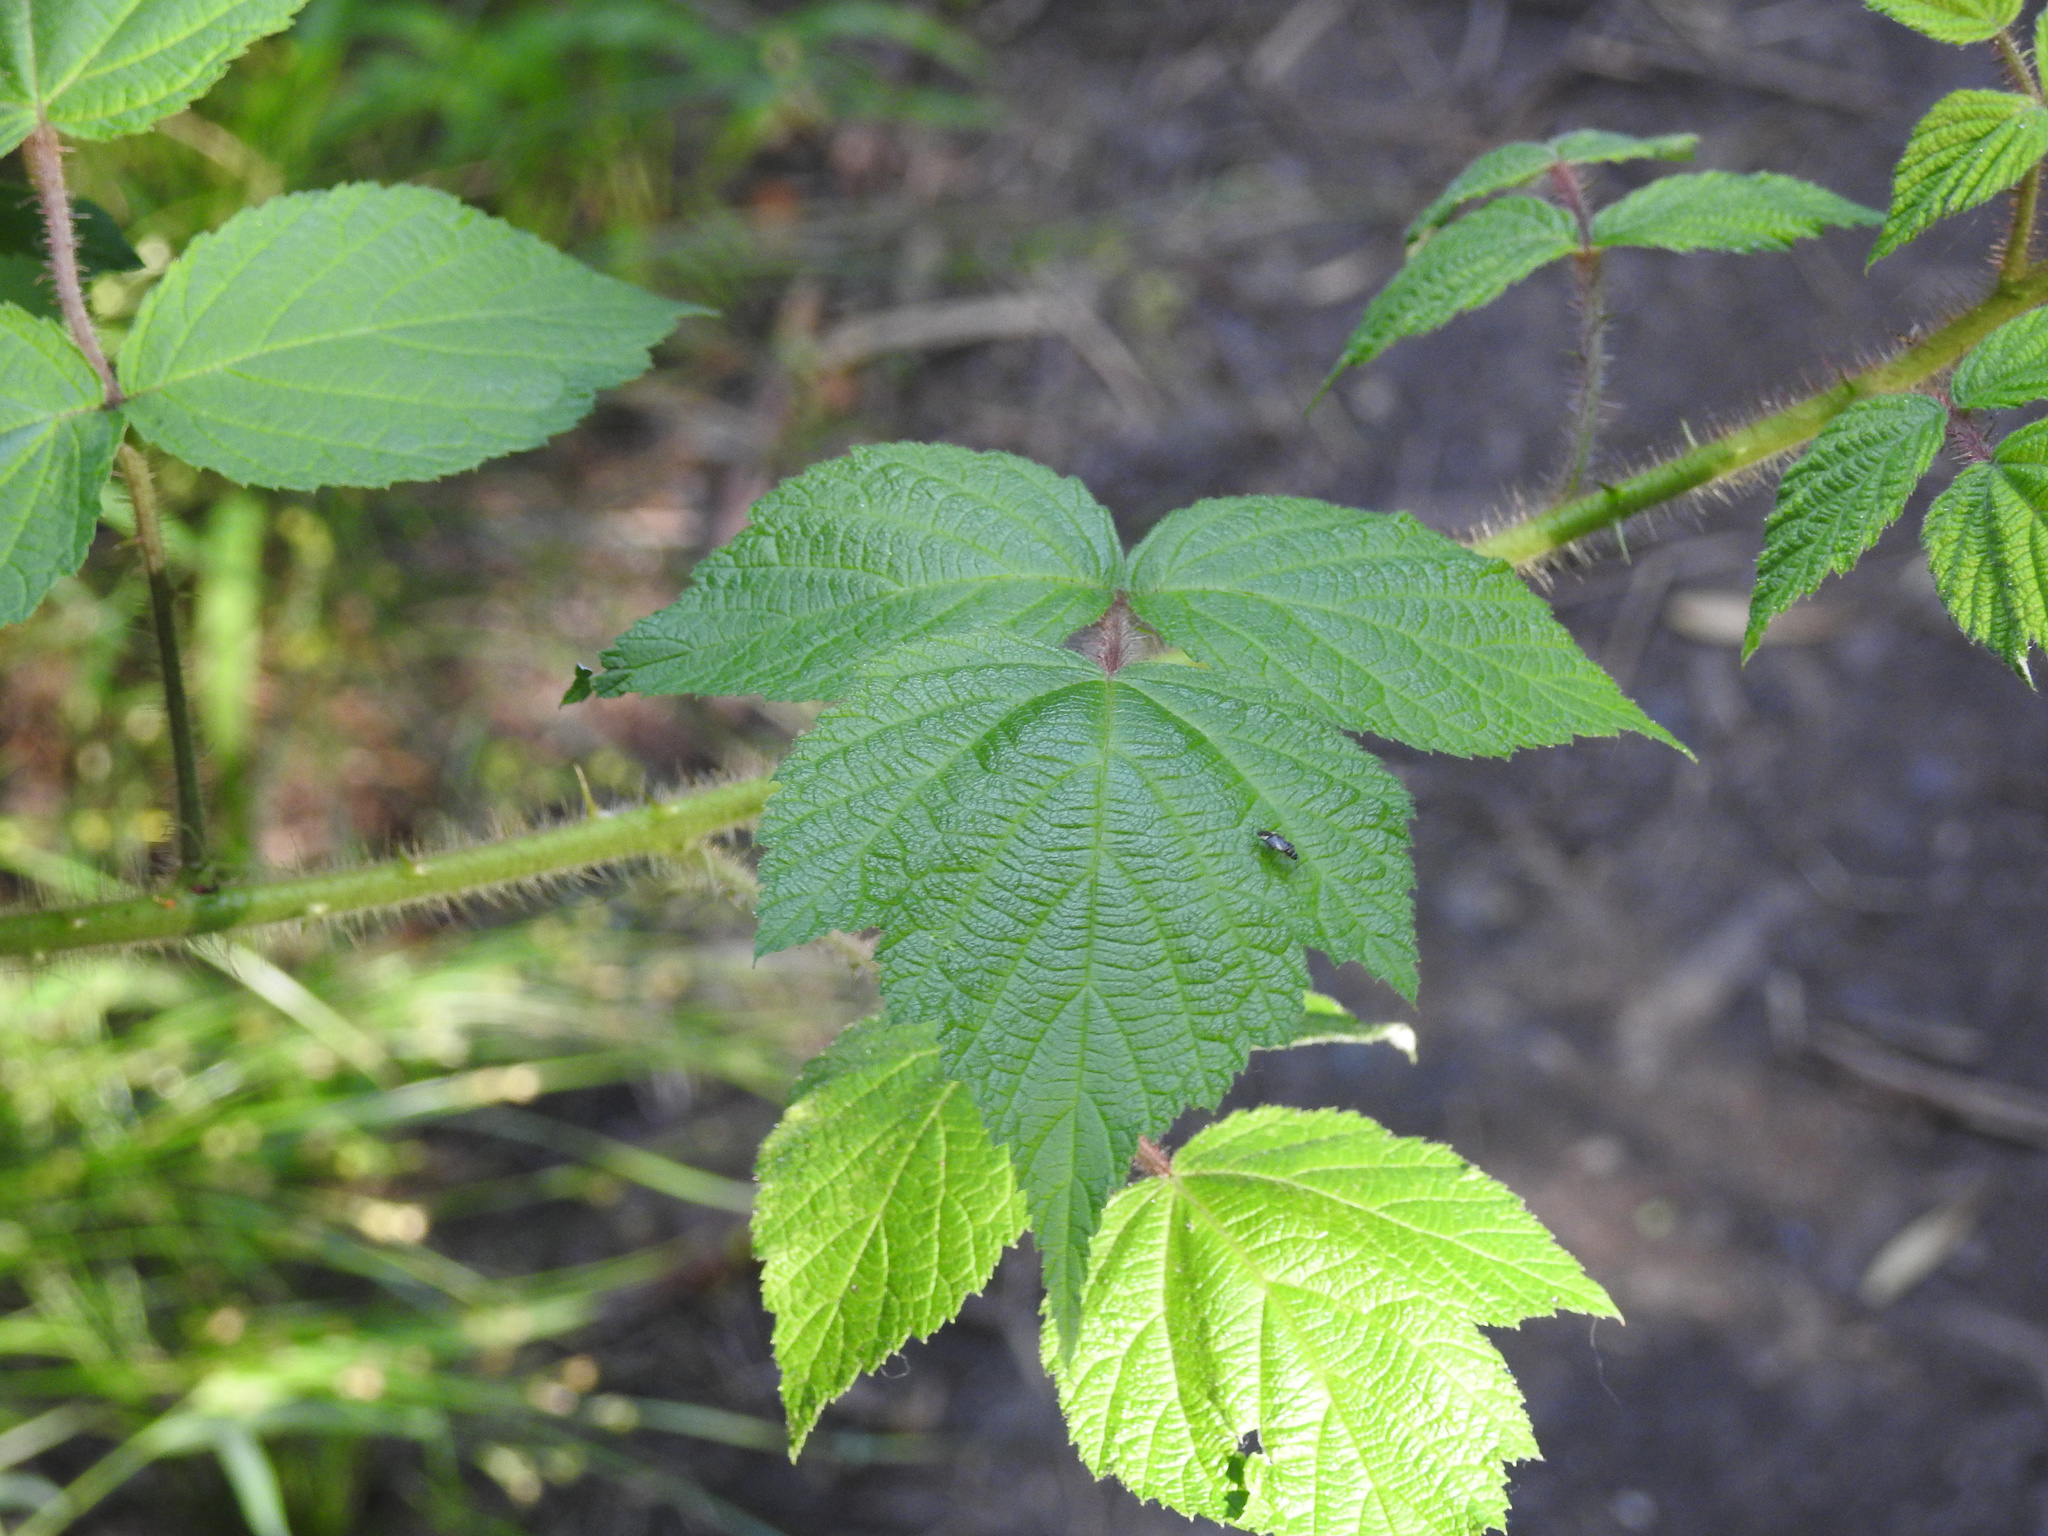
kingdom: Plantae
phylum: Tracheophyta
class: Magnoliopsida
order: Rosales
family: Rosaceae
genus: Rubus
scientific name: Rubus phoenicolasius
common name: Japanese wineberry
